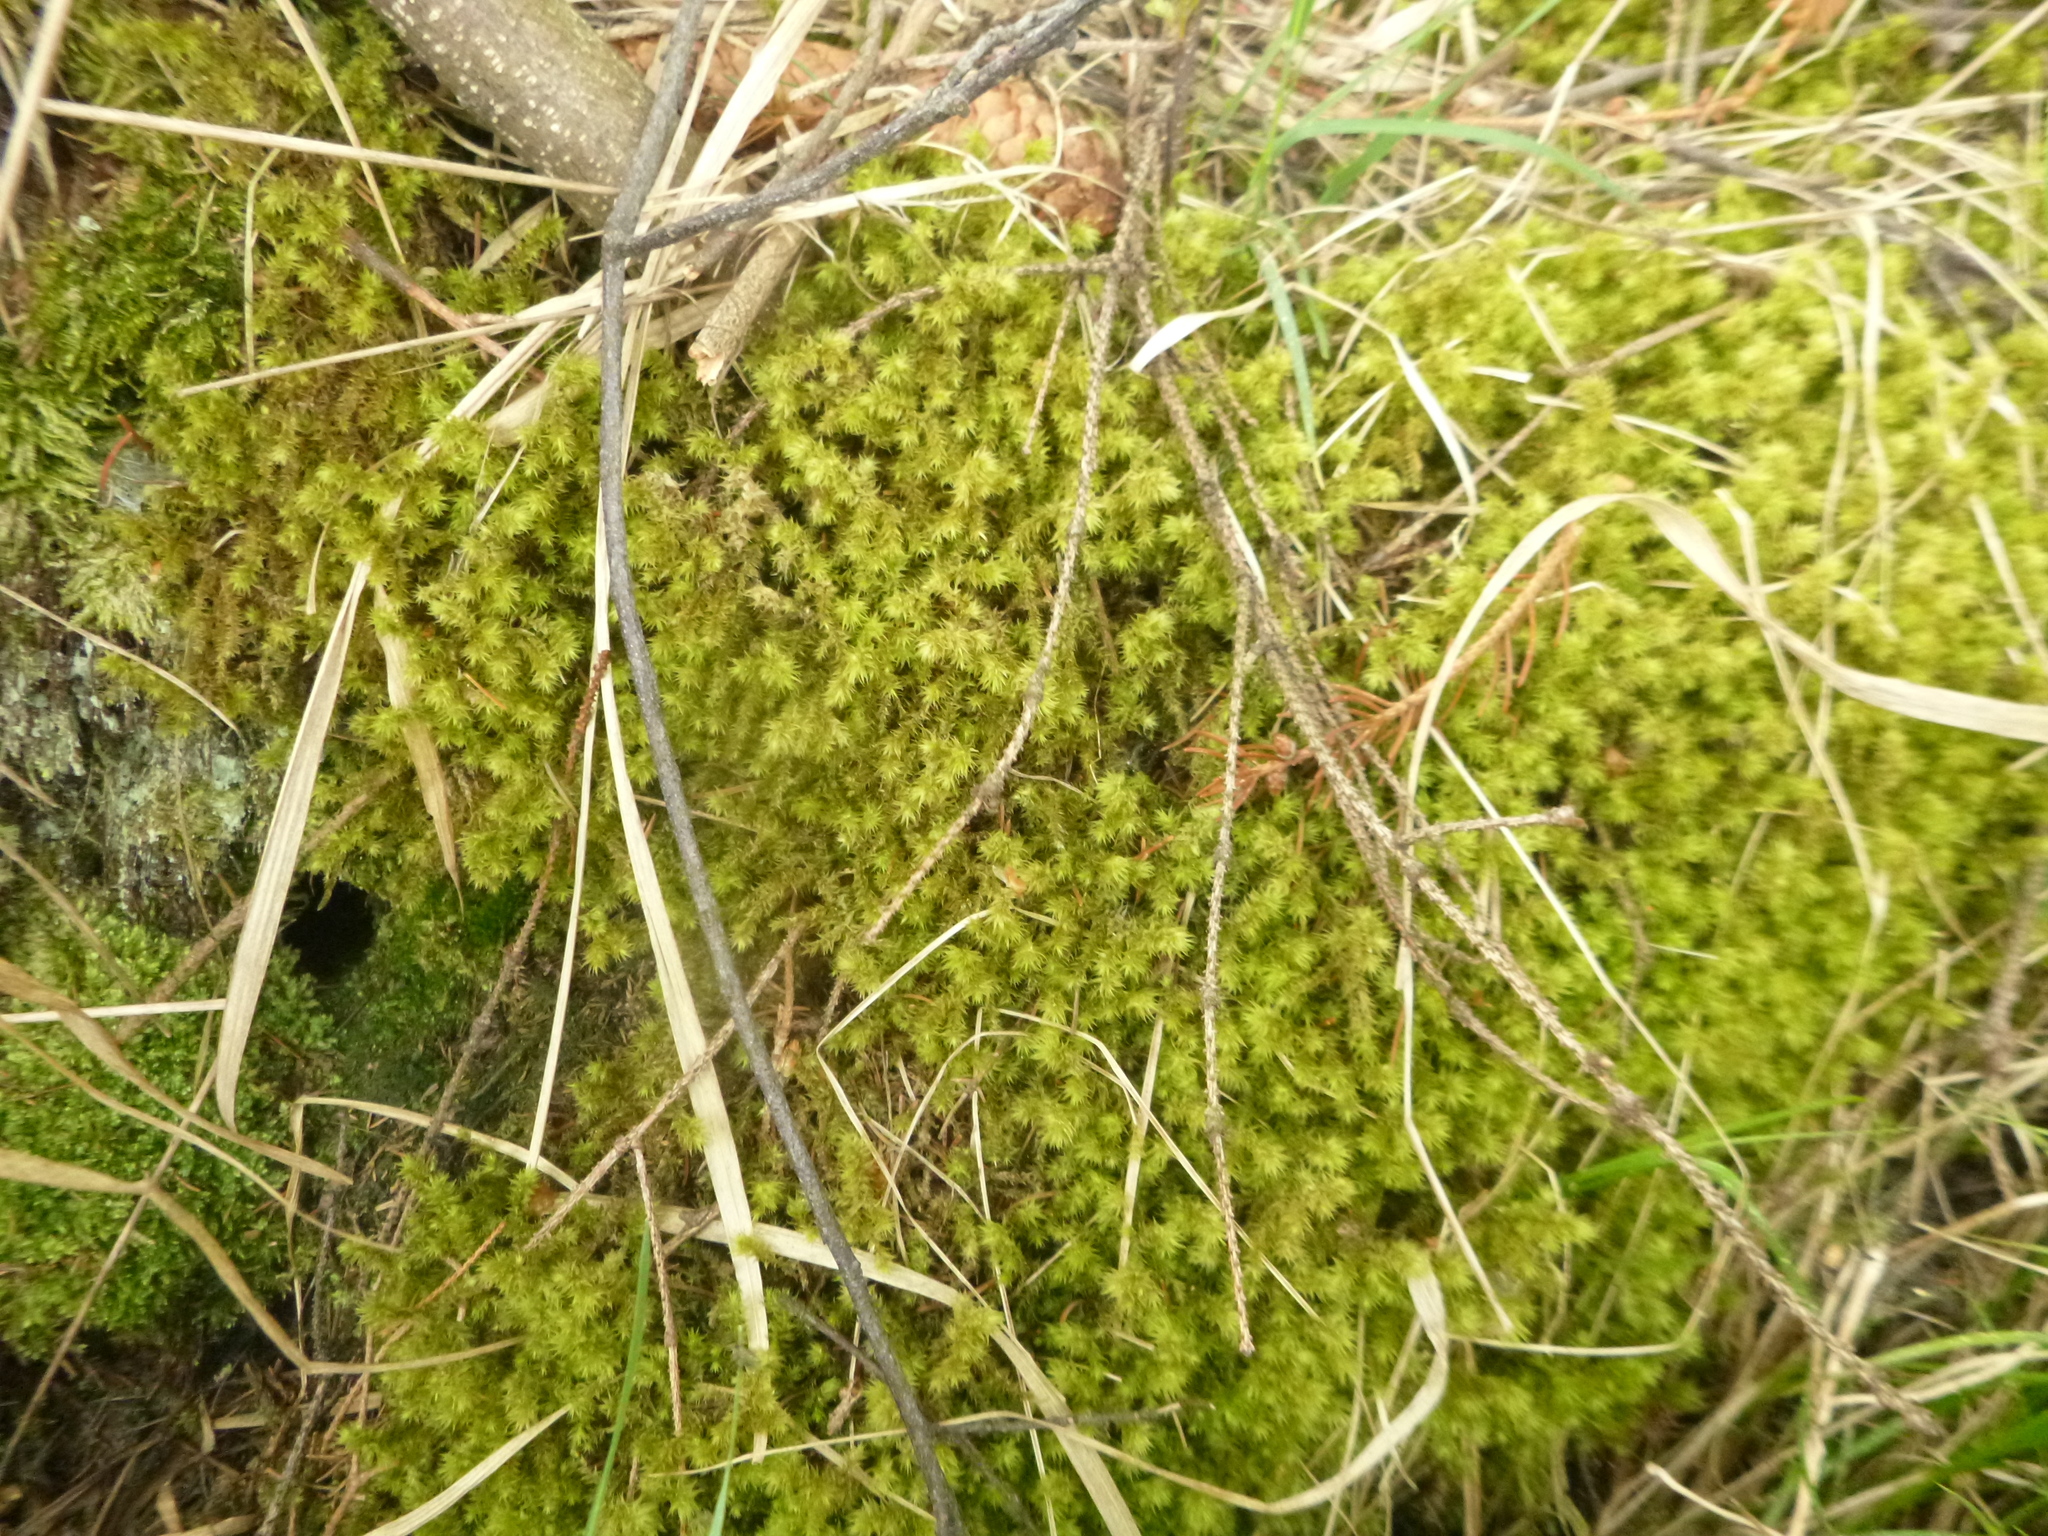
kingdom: Plantae
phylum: Bryophyta
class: Bryopsida
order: Hypnales
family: Hylocomiaceae
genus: Hylocomiadelphus
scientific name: Hylocomiadelphus triquetrus
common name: Rough goose neck moss
